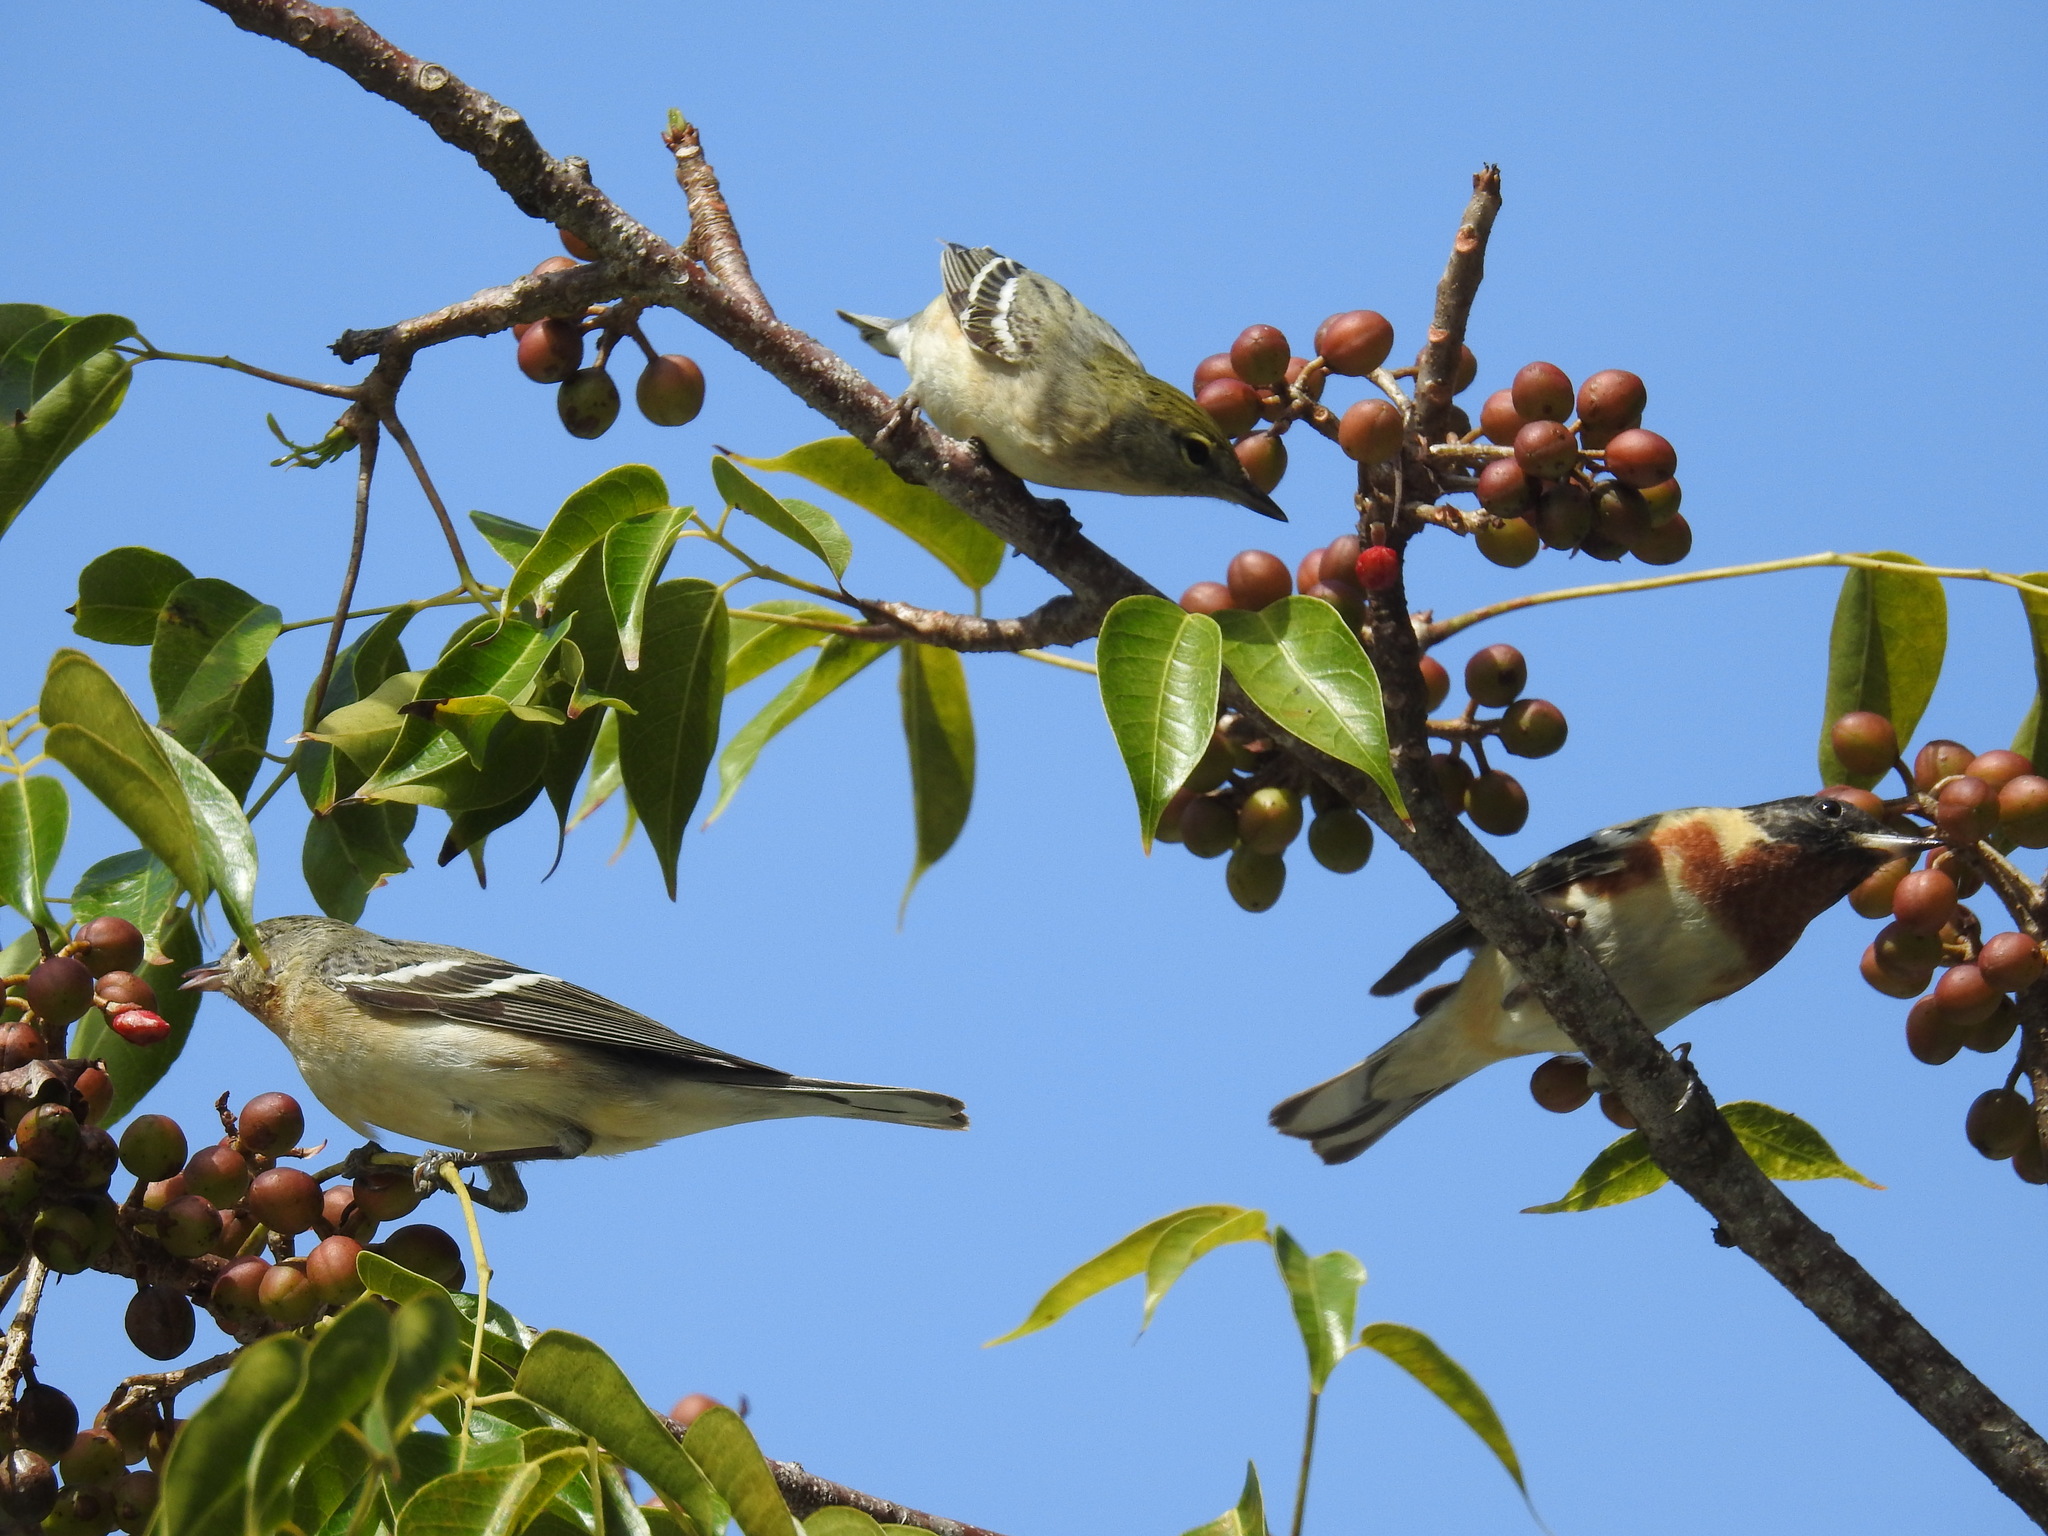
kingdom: Animalia
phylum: Chordata
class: Aves
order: Passeriformes
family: Parulidae
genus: Setophaga
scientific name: Setophaga castanea
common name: Bay-breasted warbler
